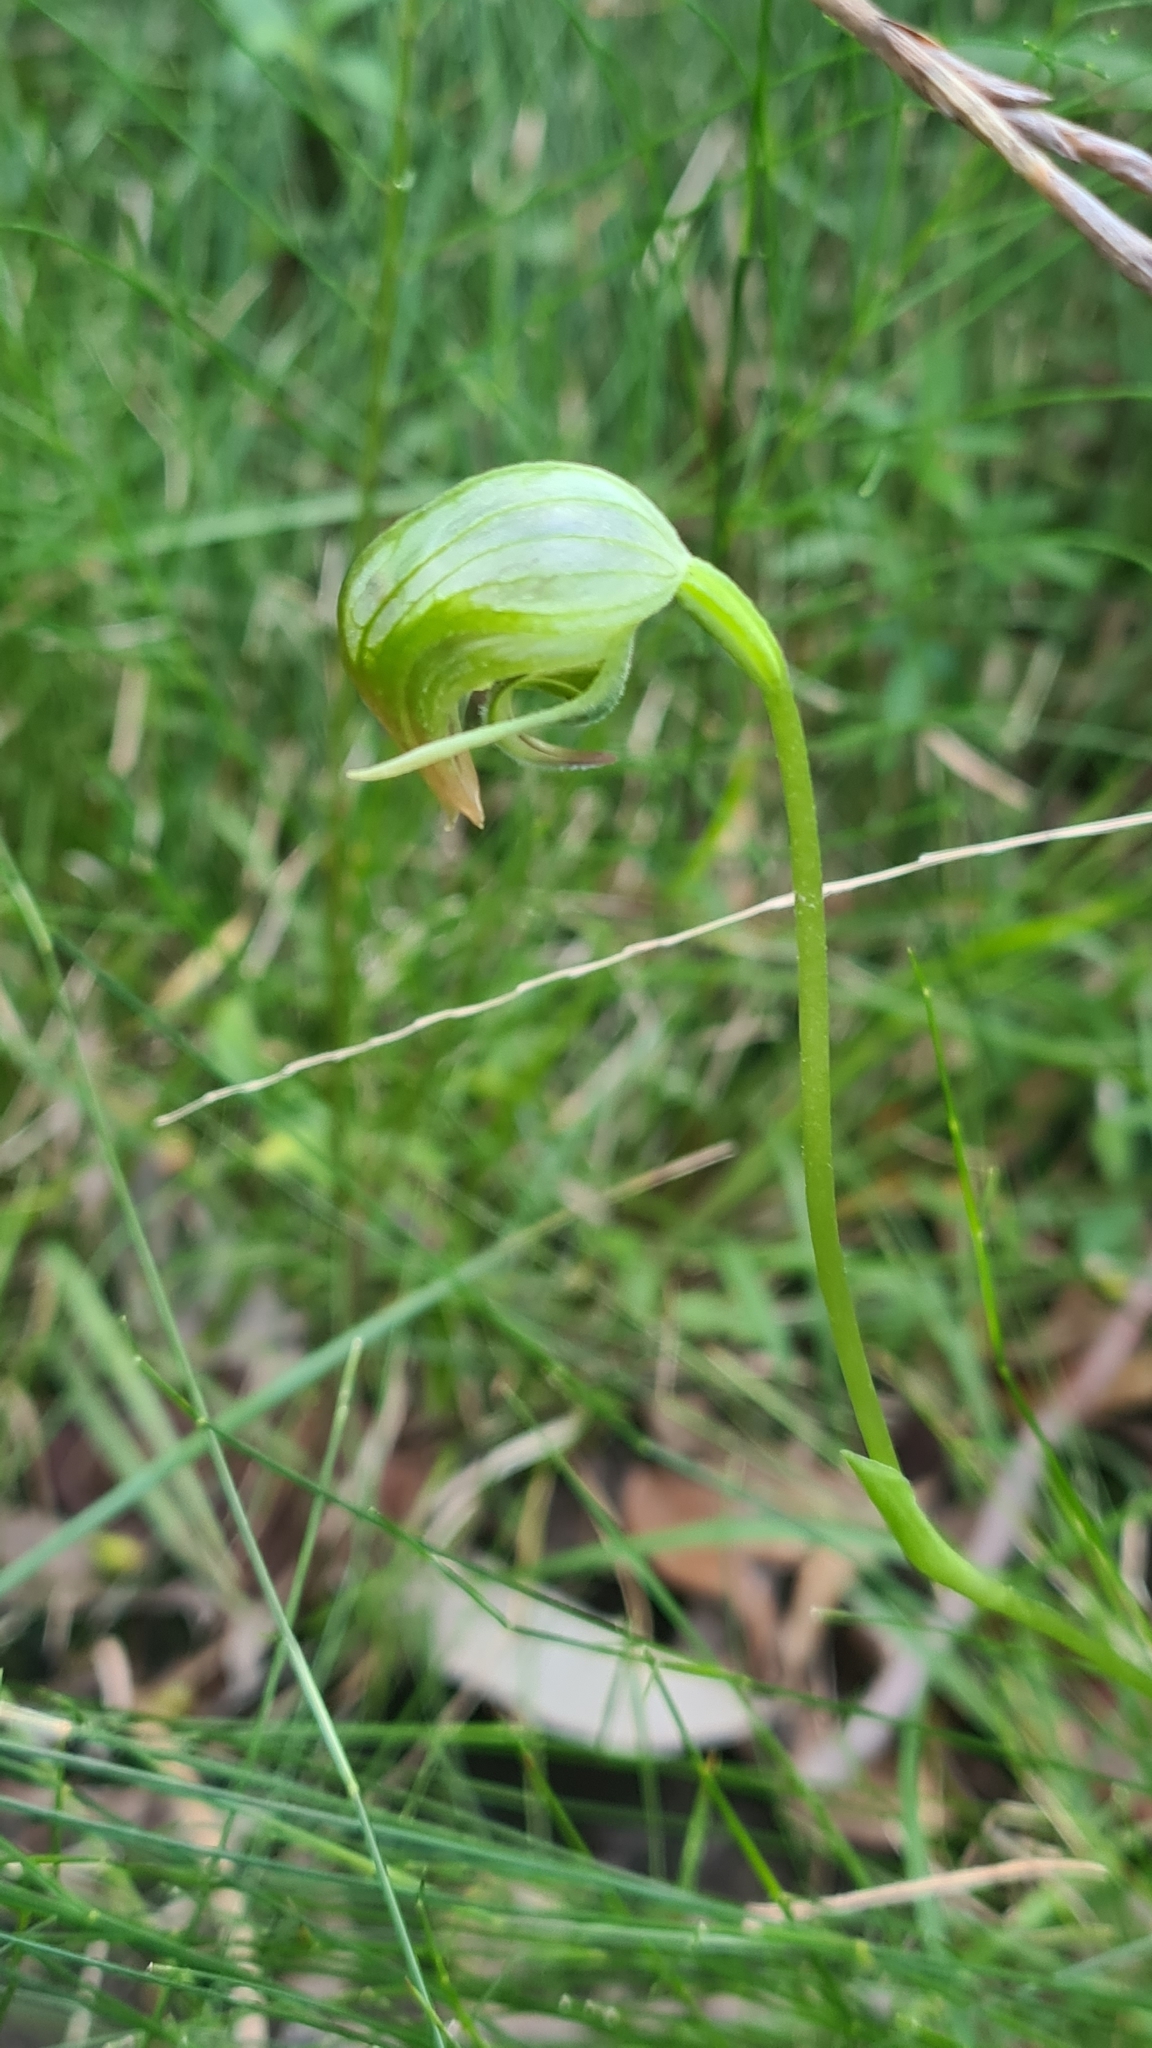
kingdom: Plantae
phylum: Tracheophyta
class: Liliopsida
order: Asparagales
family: Orchidaceae
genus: Pterostylis
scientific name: Pterostylis nutans
